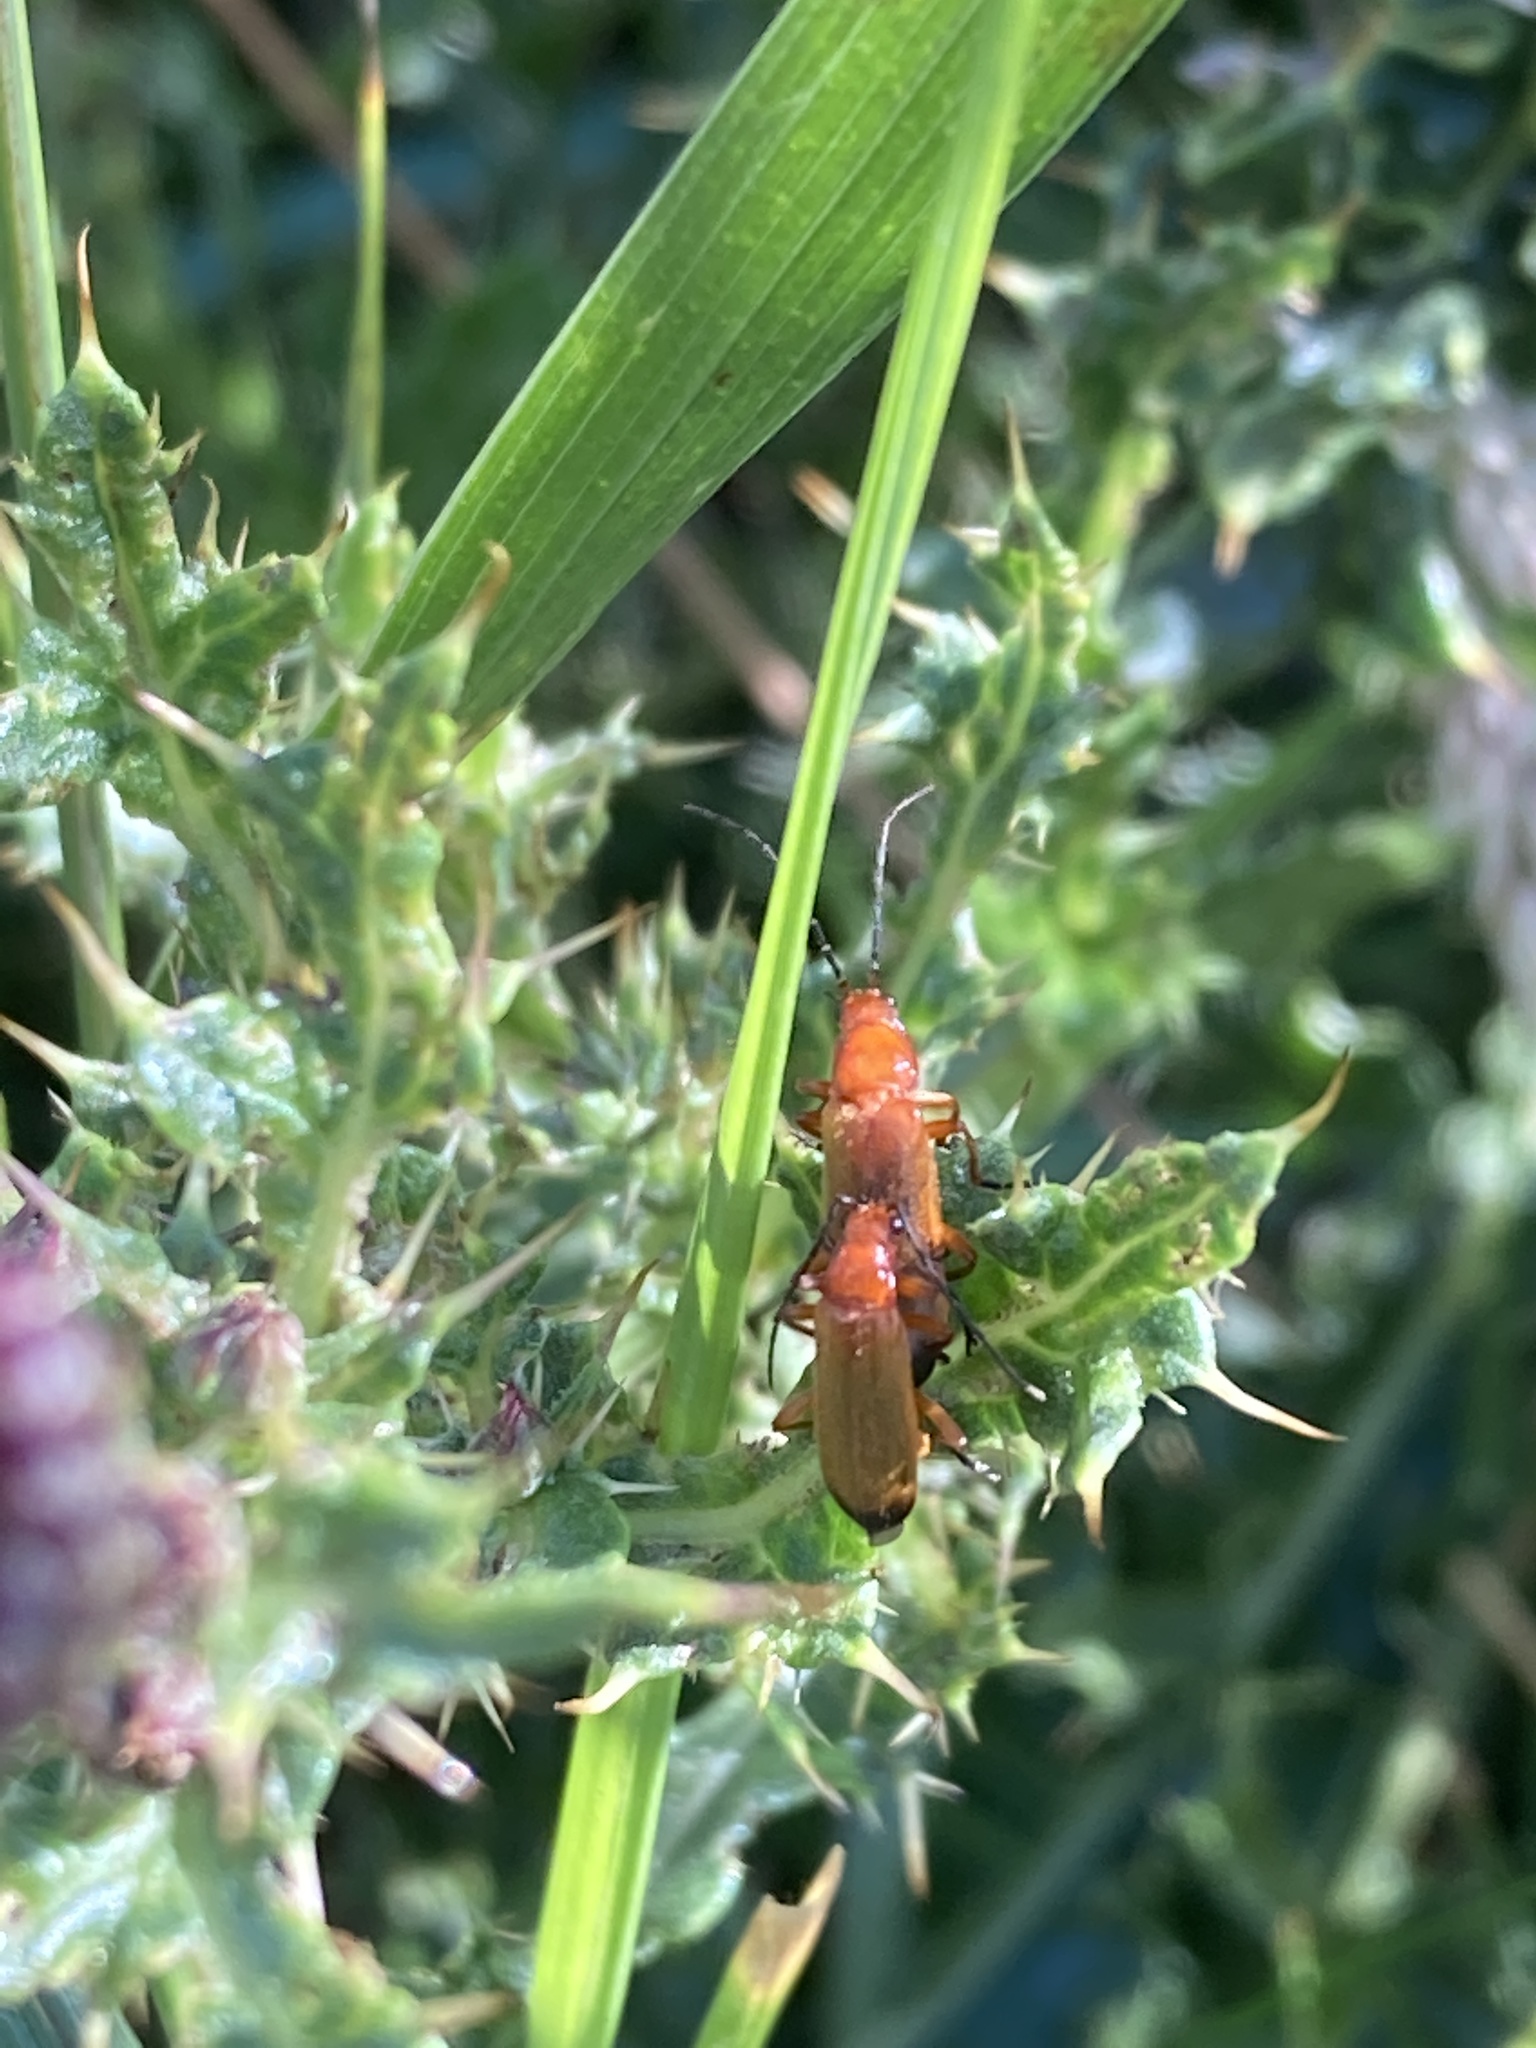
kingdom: Animalia
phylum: Arthropoda
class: Insecta
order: Coleoptera
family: Cantharidae
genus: Rhagonycha
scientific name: Rhagonycha fulva
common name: Common red soldier beetle
